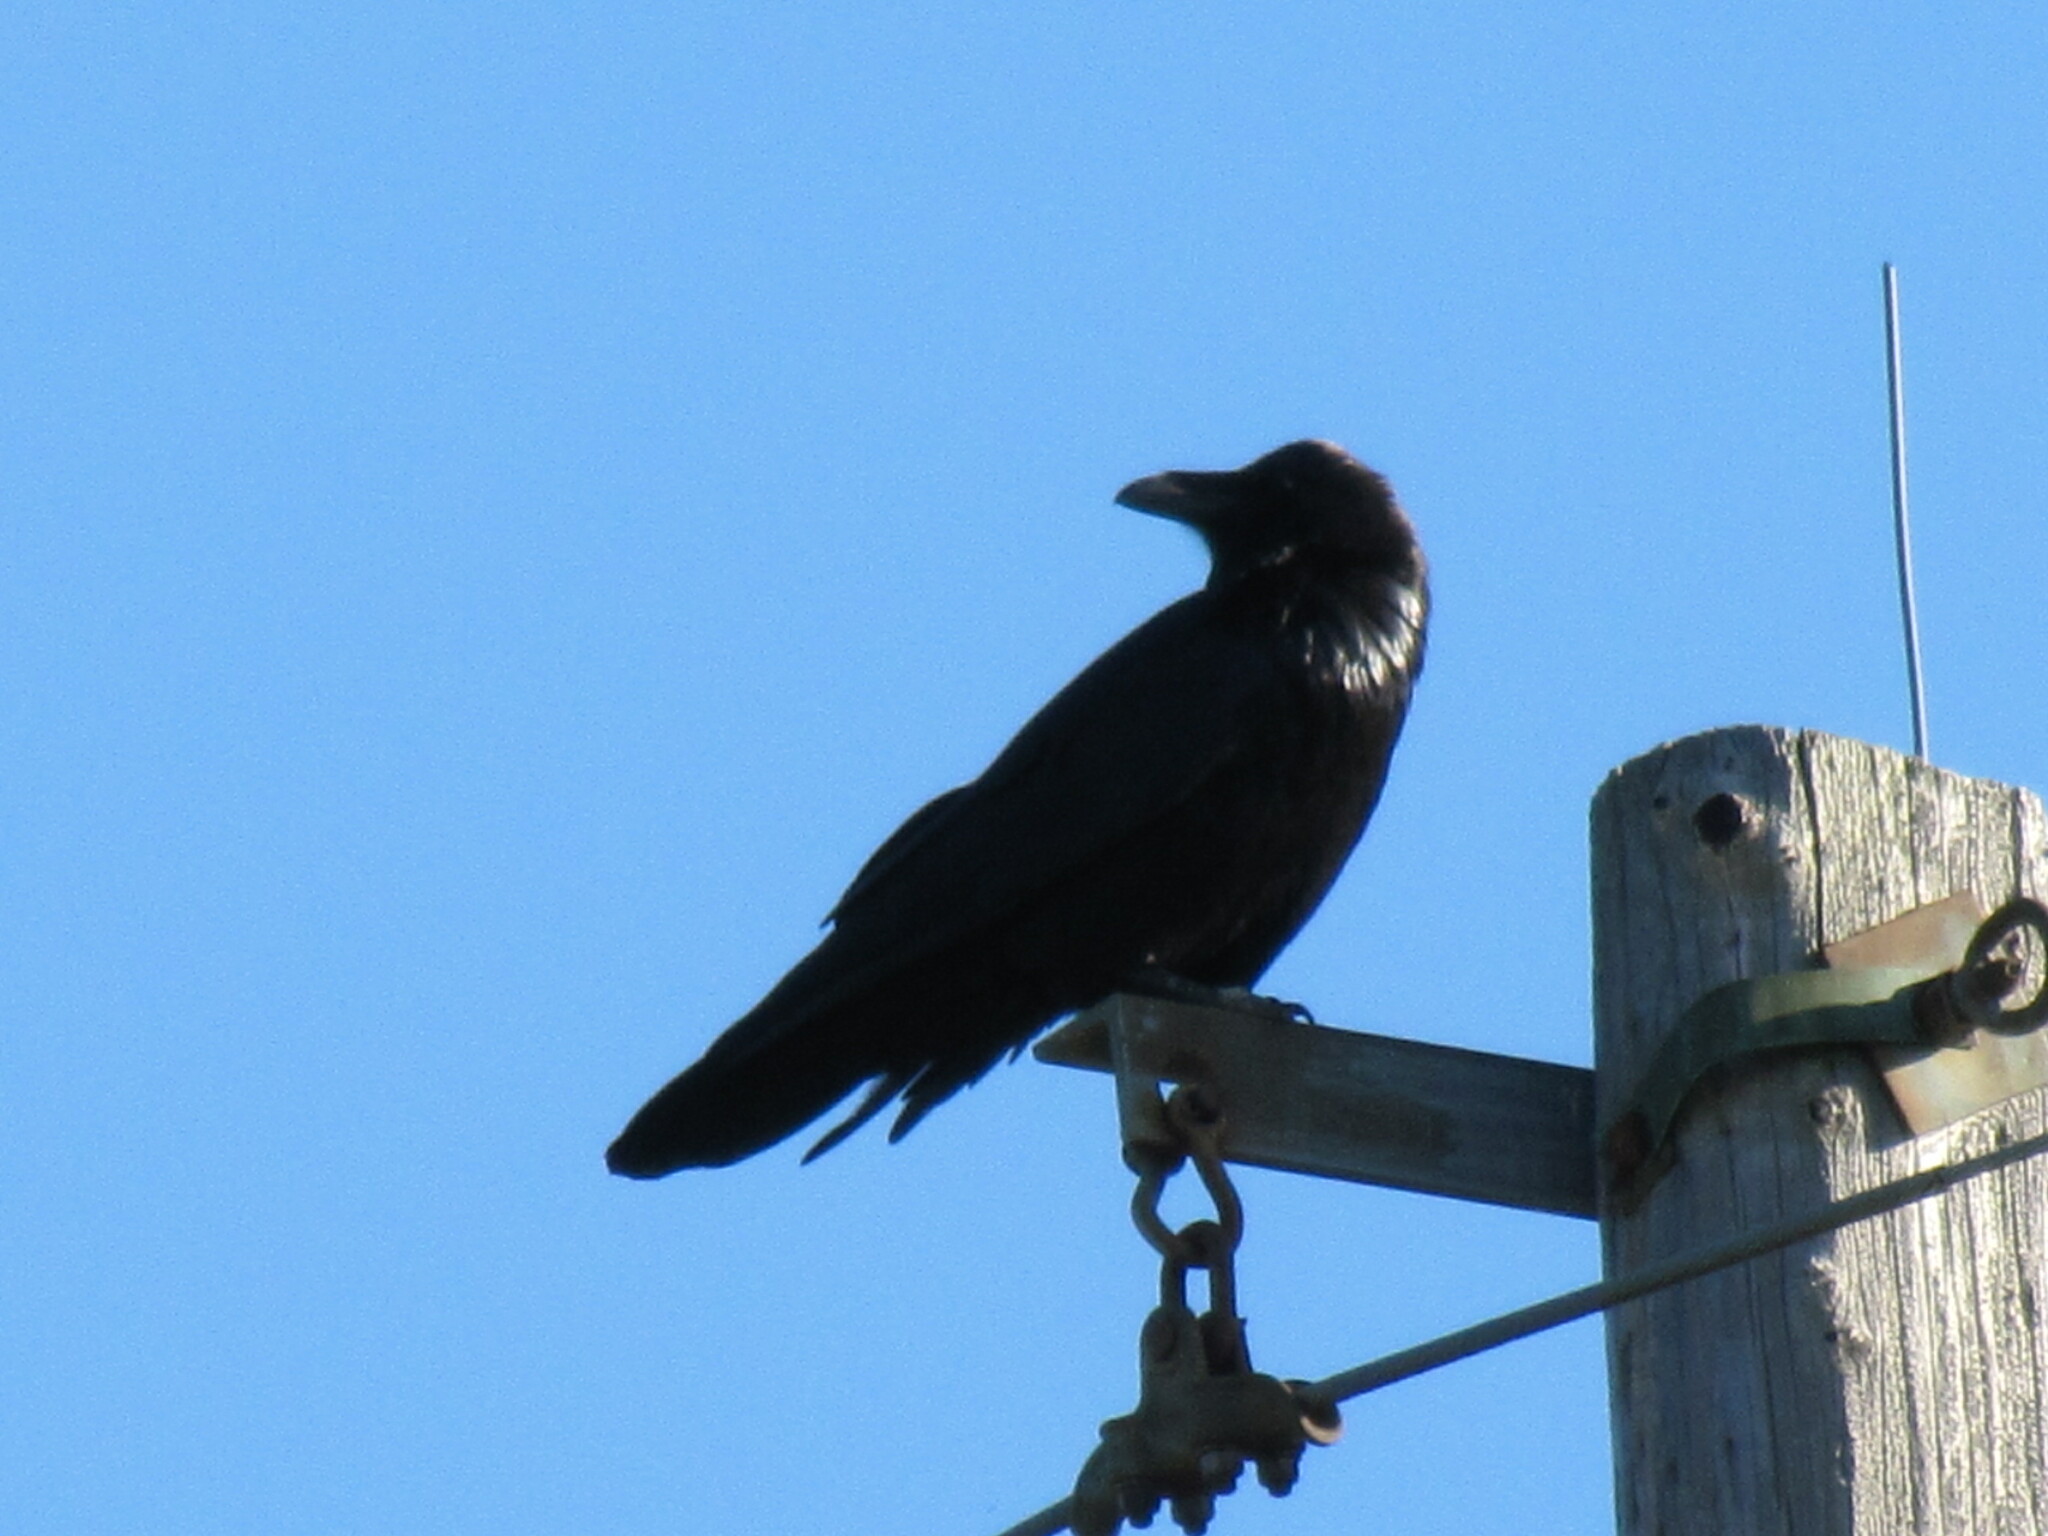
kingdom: Animalia
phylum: Chordata
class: Aves
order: Passeriformes
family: Corvidae
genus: Corvus
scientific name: Corvus corax
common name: Common raven
